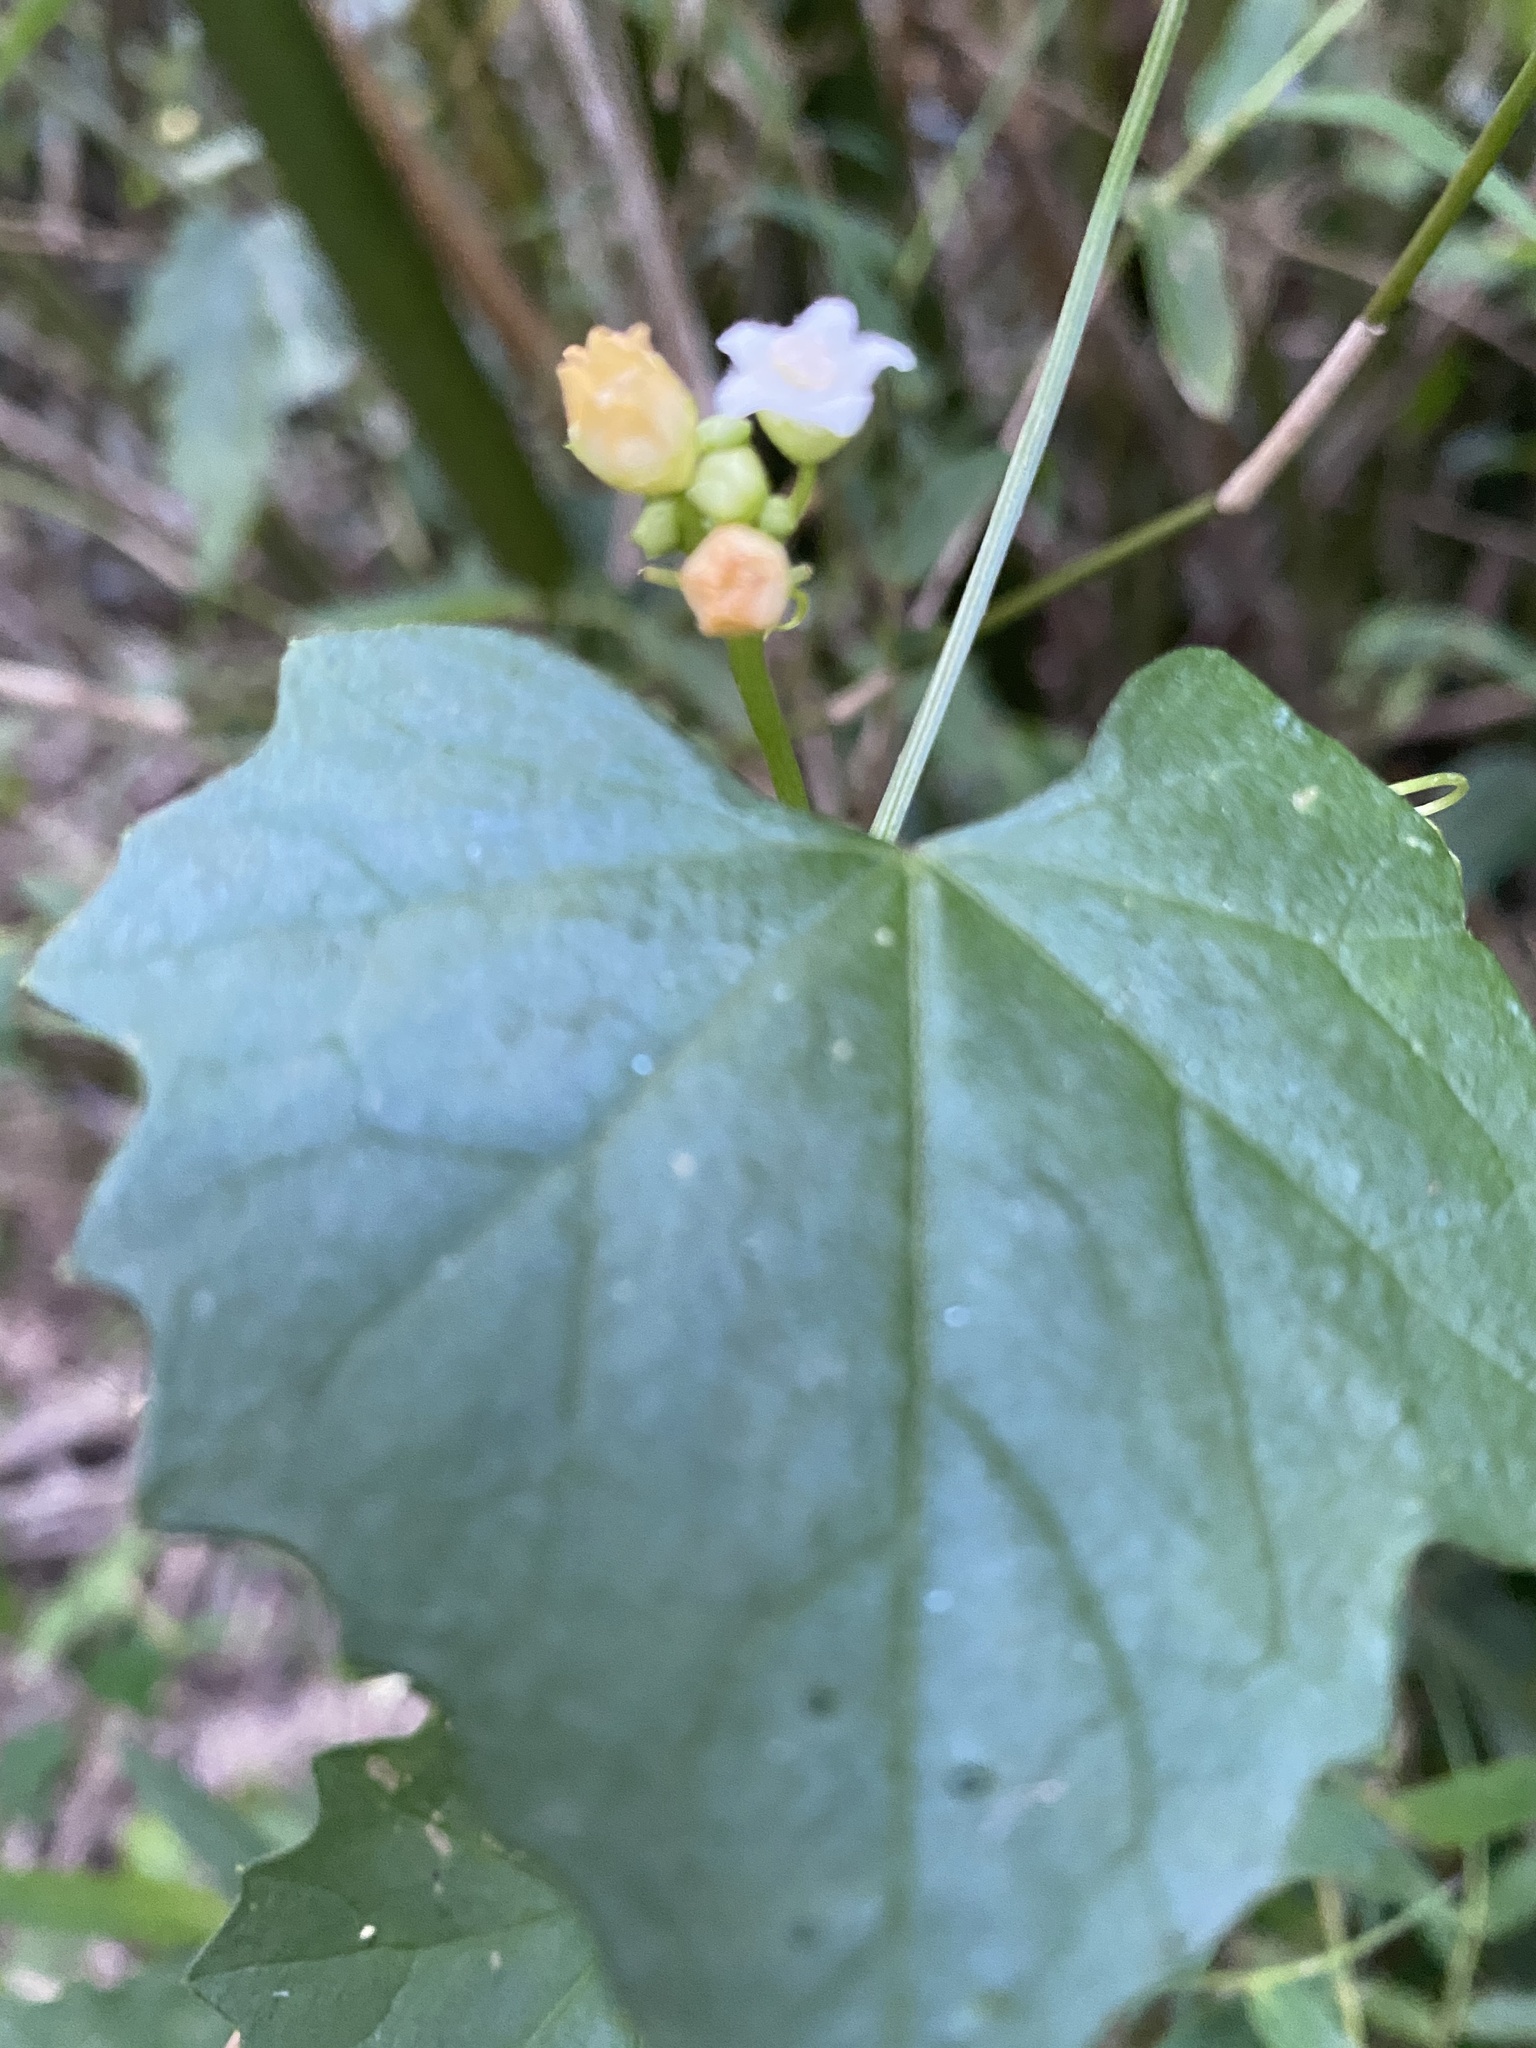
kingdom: Plantae
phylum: Tracheophyta
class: Magnoliopsida
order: Cucurbitales
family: Cucurbitaceae
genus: Zehneria
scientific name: Zehneria guamensis
